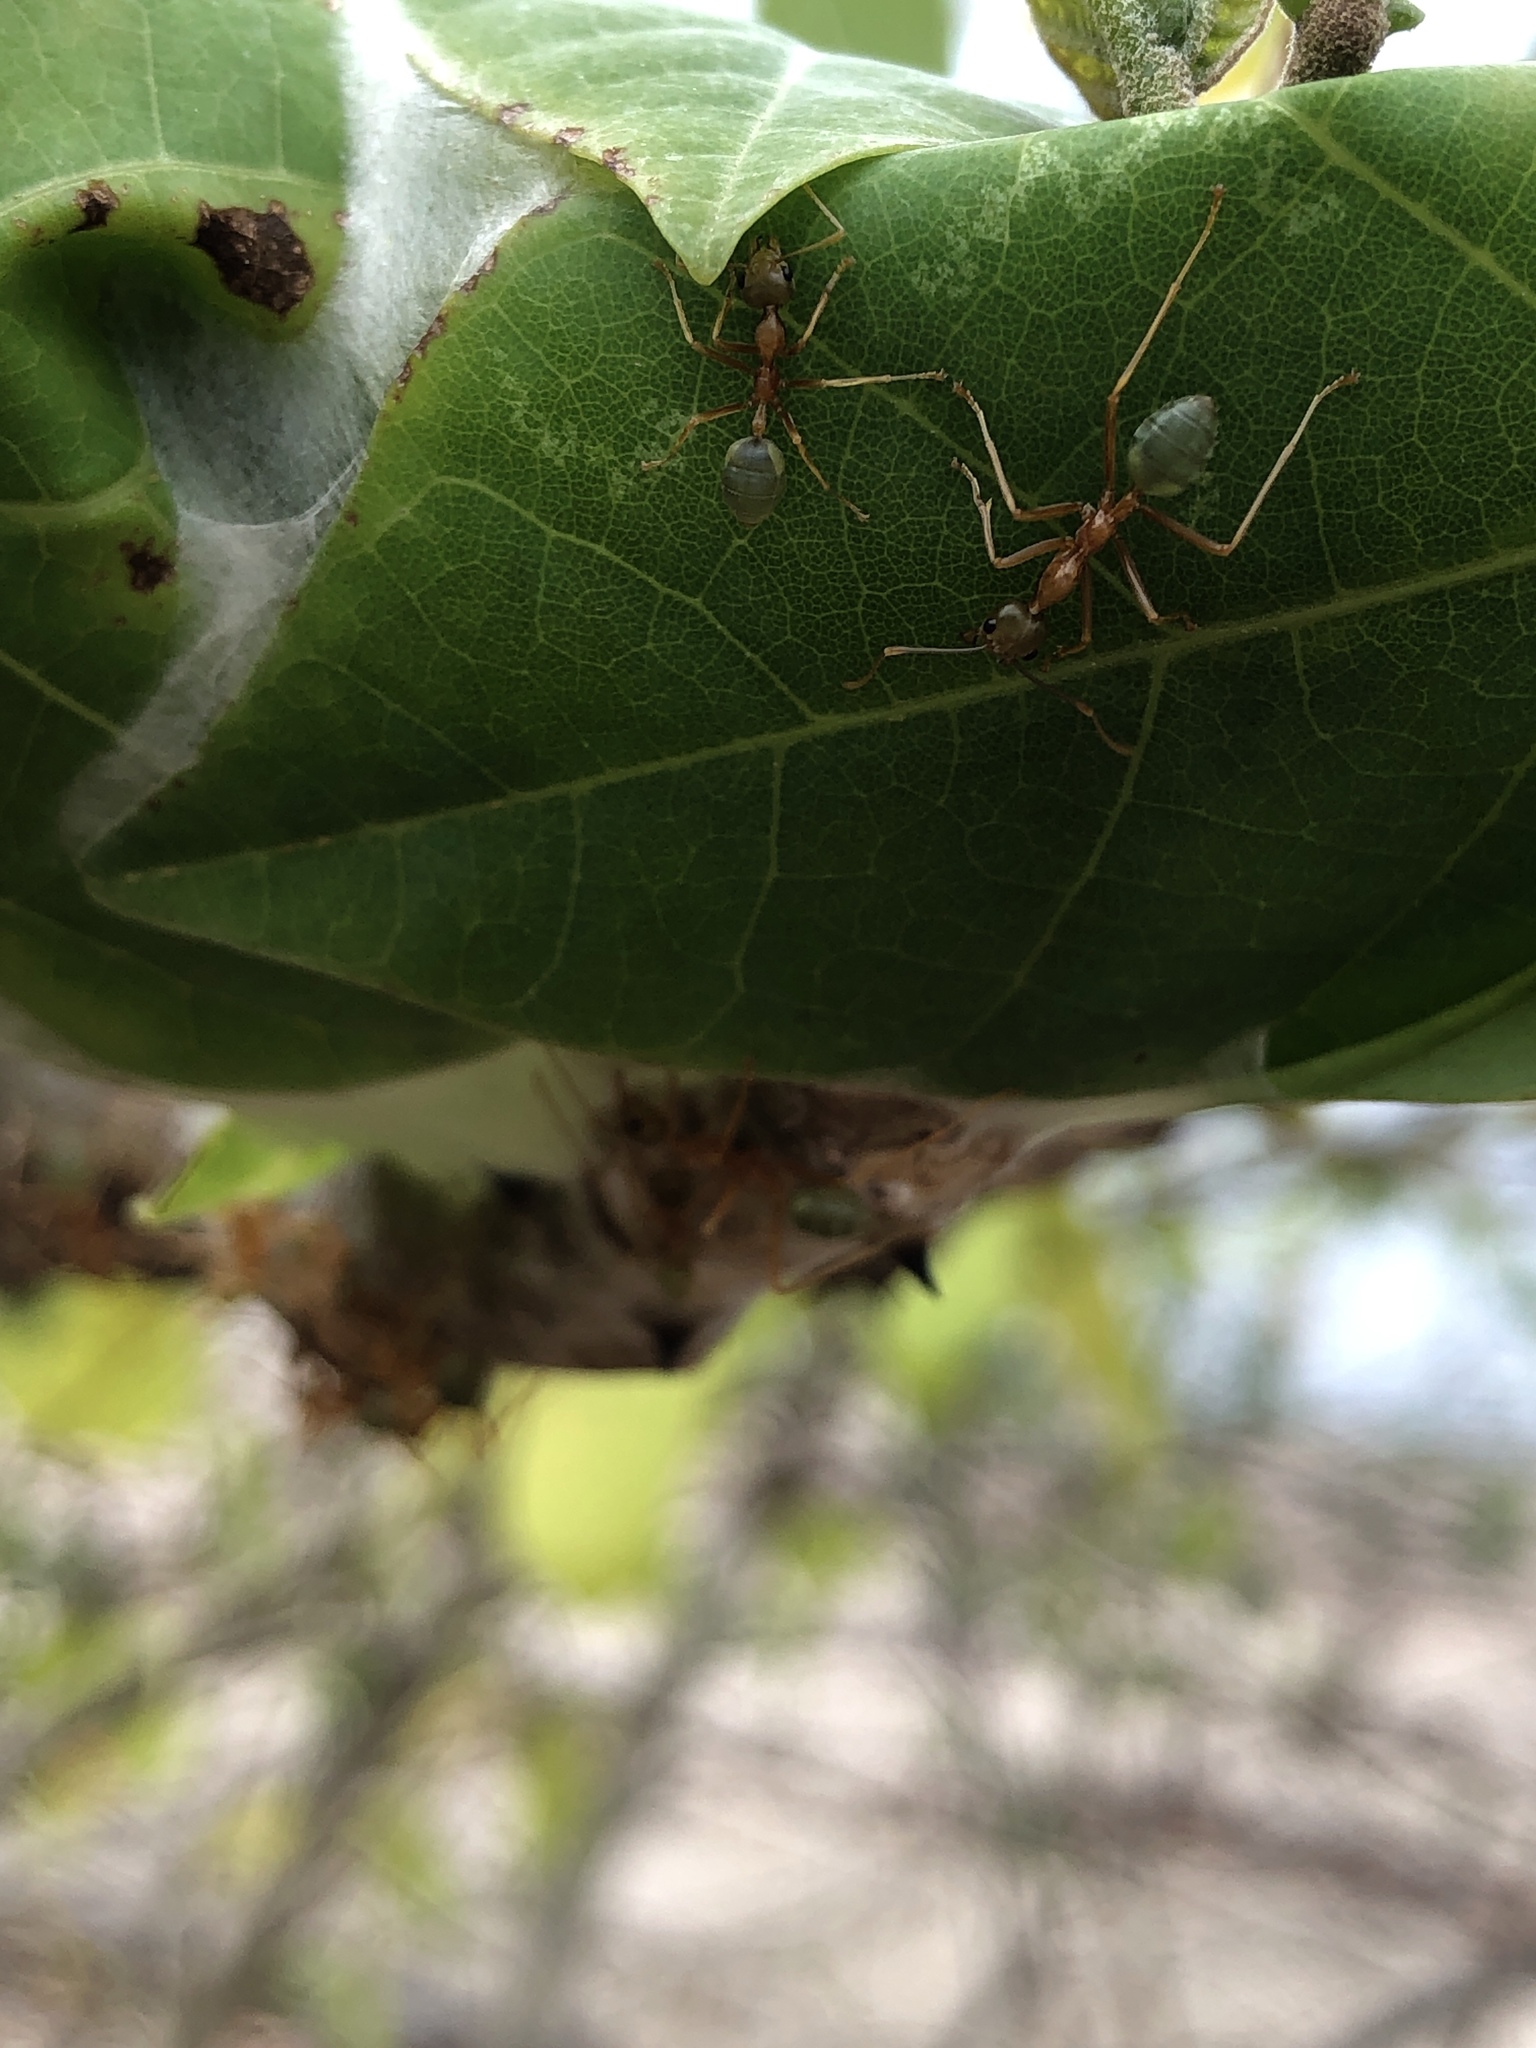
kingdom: Animalia
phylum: Arthropoda
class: Insecta
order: Hymenoptera
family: Formicidae
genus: Oecophylla
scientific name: Oecophylla smaragdina
